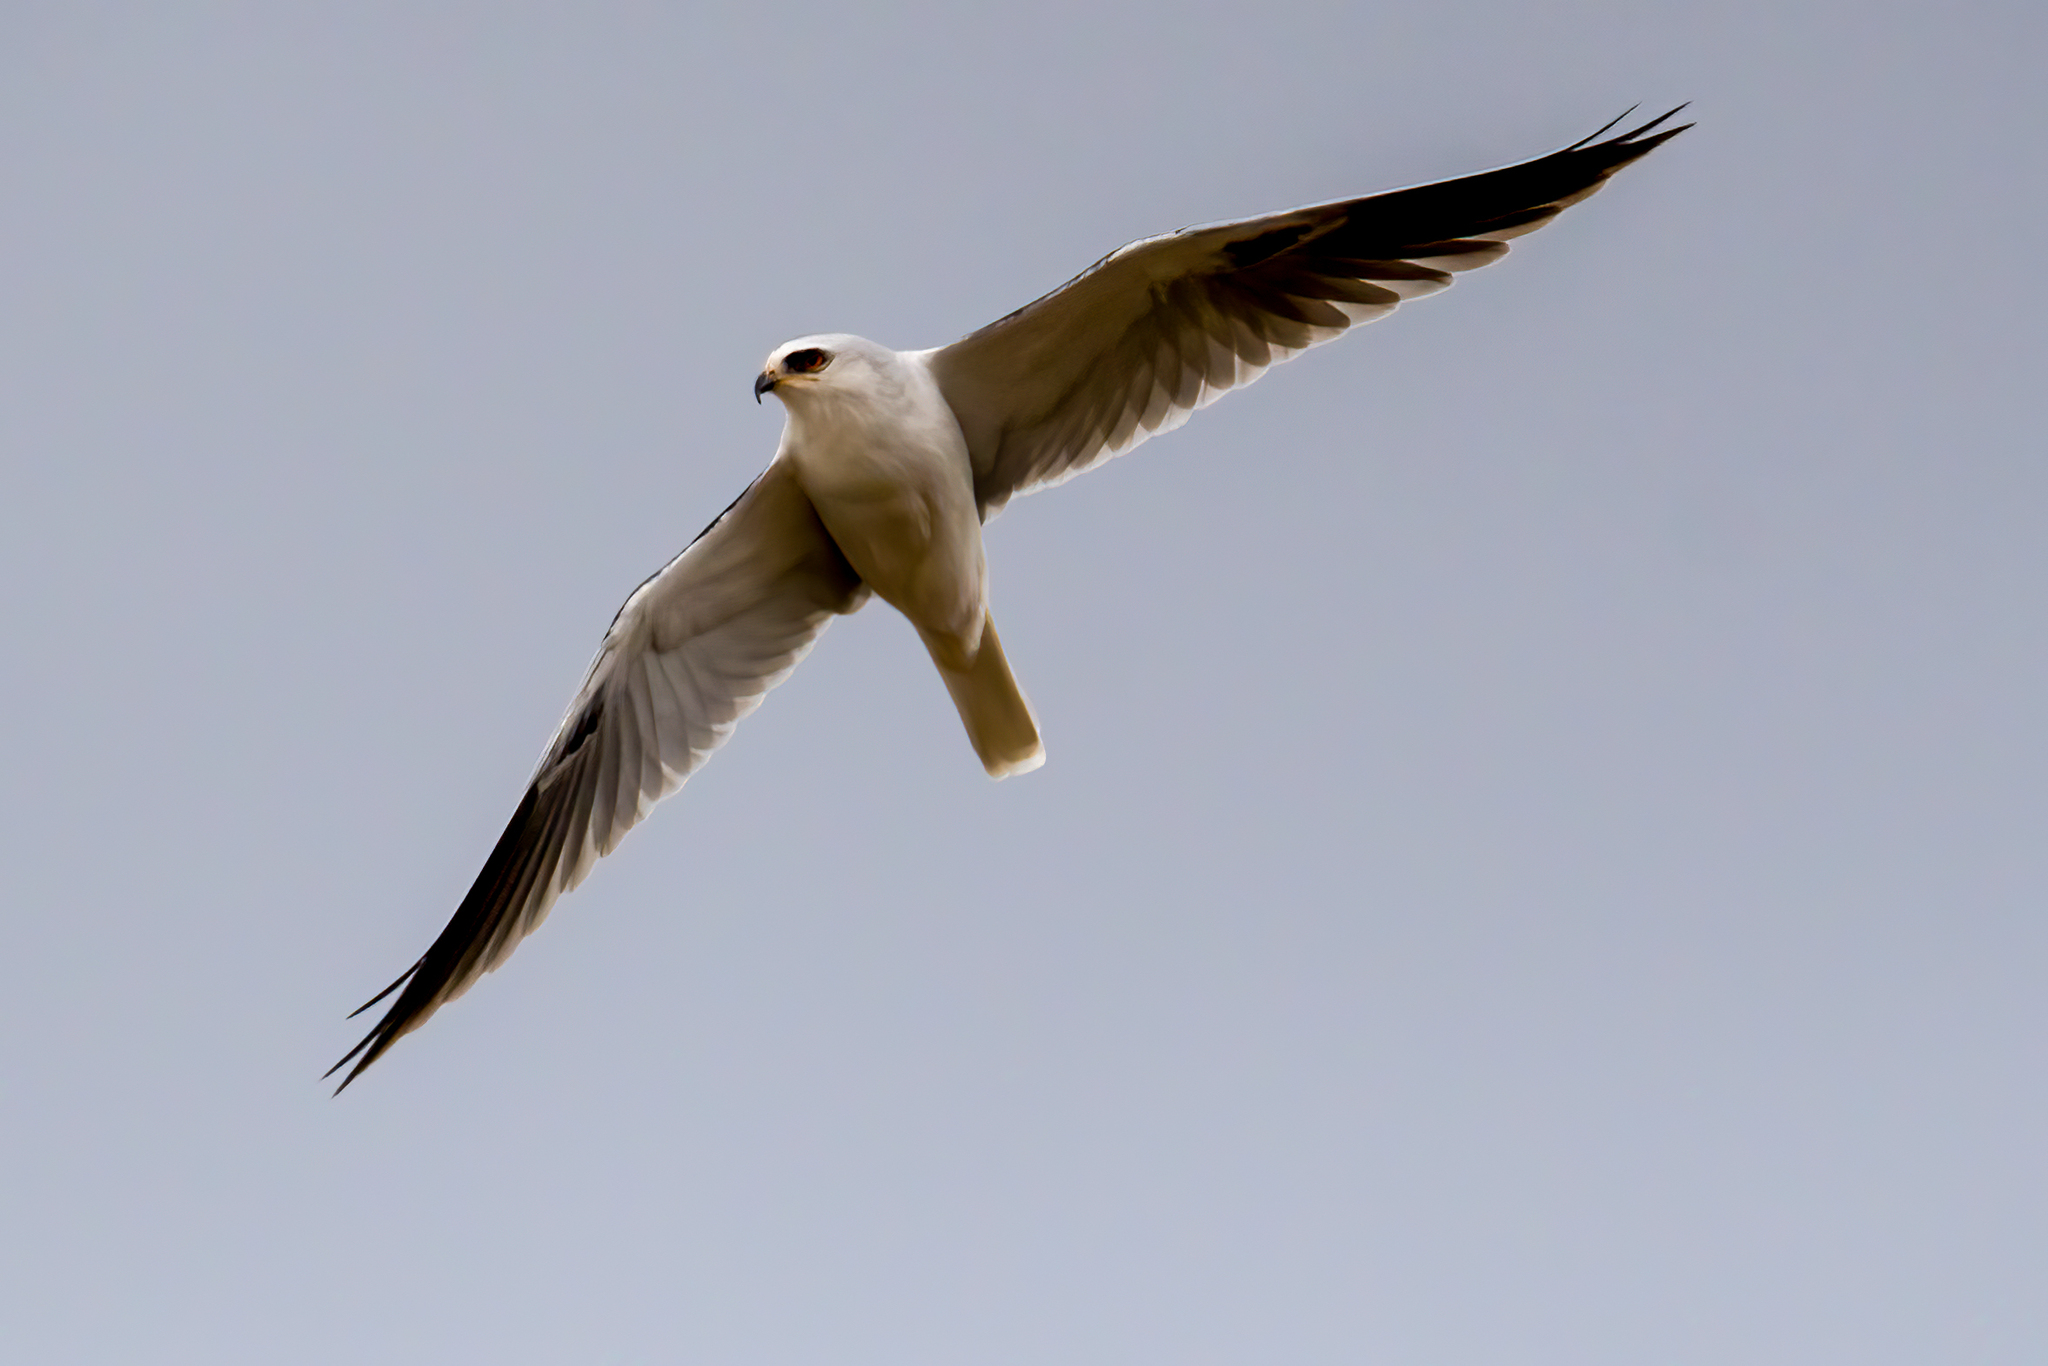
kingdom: Animalia
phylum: Chordata
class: Aves
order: Accipitriformes
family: Accipitridae
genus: Elanus
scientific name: Elanus leucurus
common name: White-tailed kite
